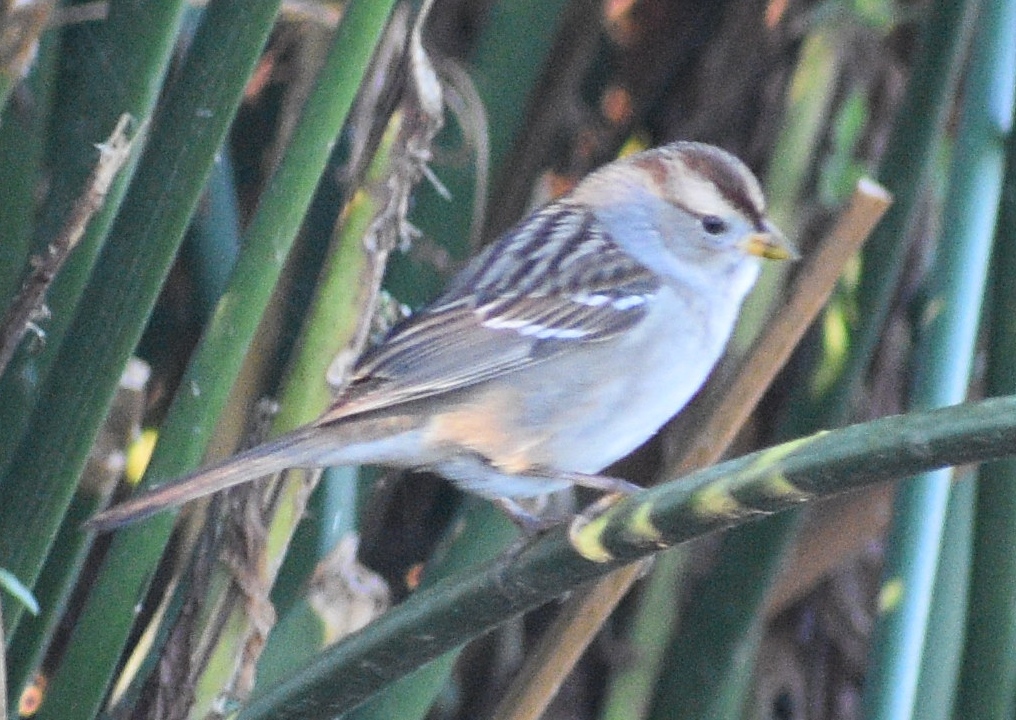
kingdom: Animalia
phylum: Chordata
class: Aves
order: Passeriformes
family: Passerellidae
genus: Zonotrichia
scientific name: Zonotrichia leucophrys
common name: White-crowned sparrow
